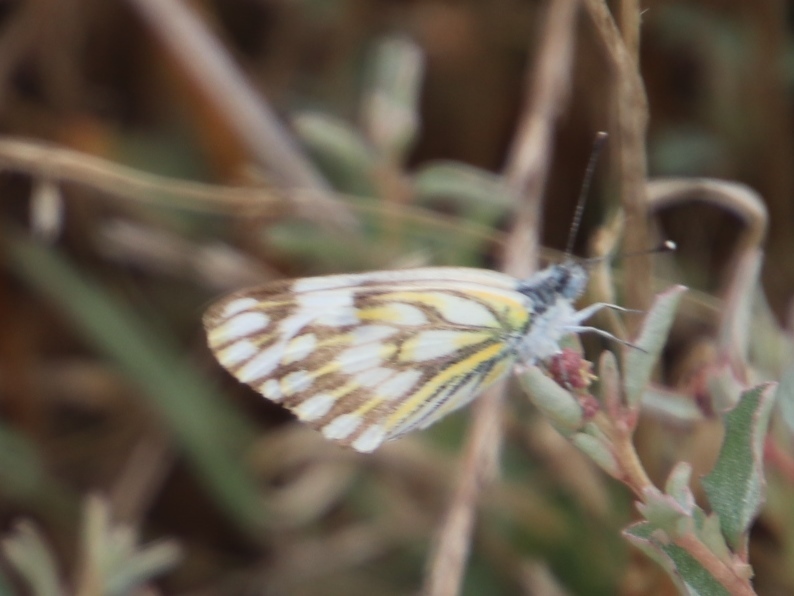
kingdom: Animalia
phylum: Arthropoda
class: Insecta
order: Lepidoptera
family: Pieridae
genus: Pontia
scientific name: Pontia helice
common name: Meadow white
